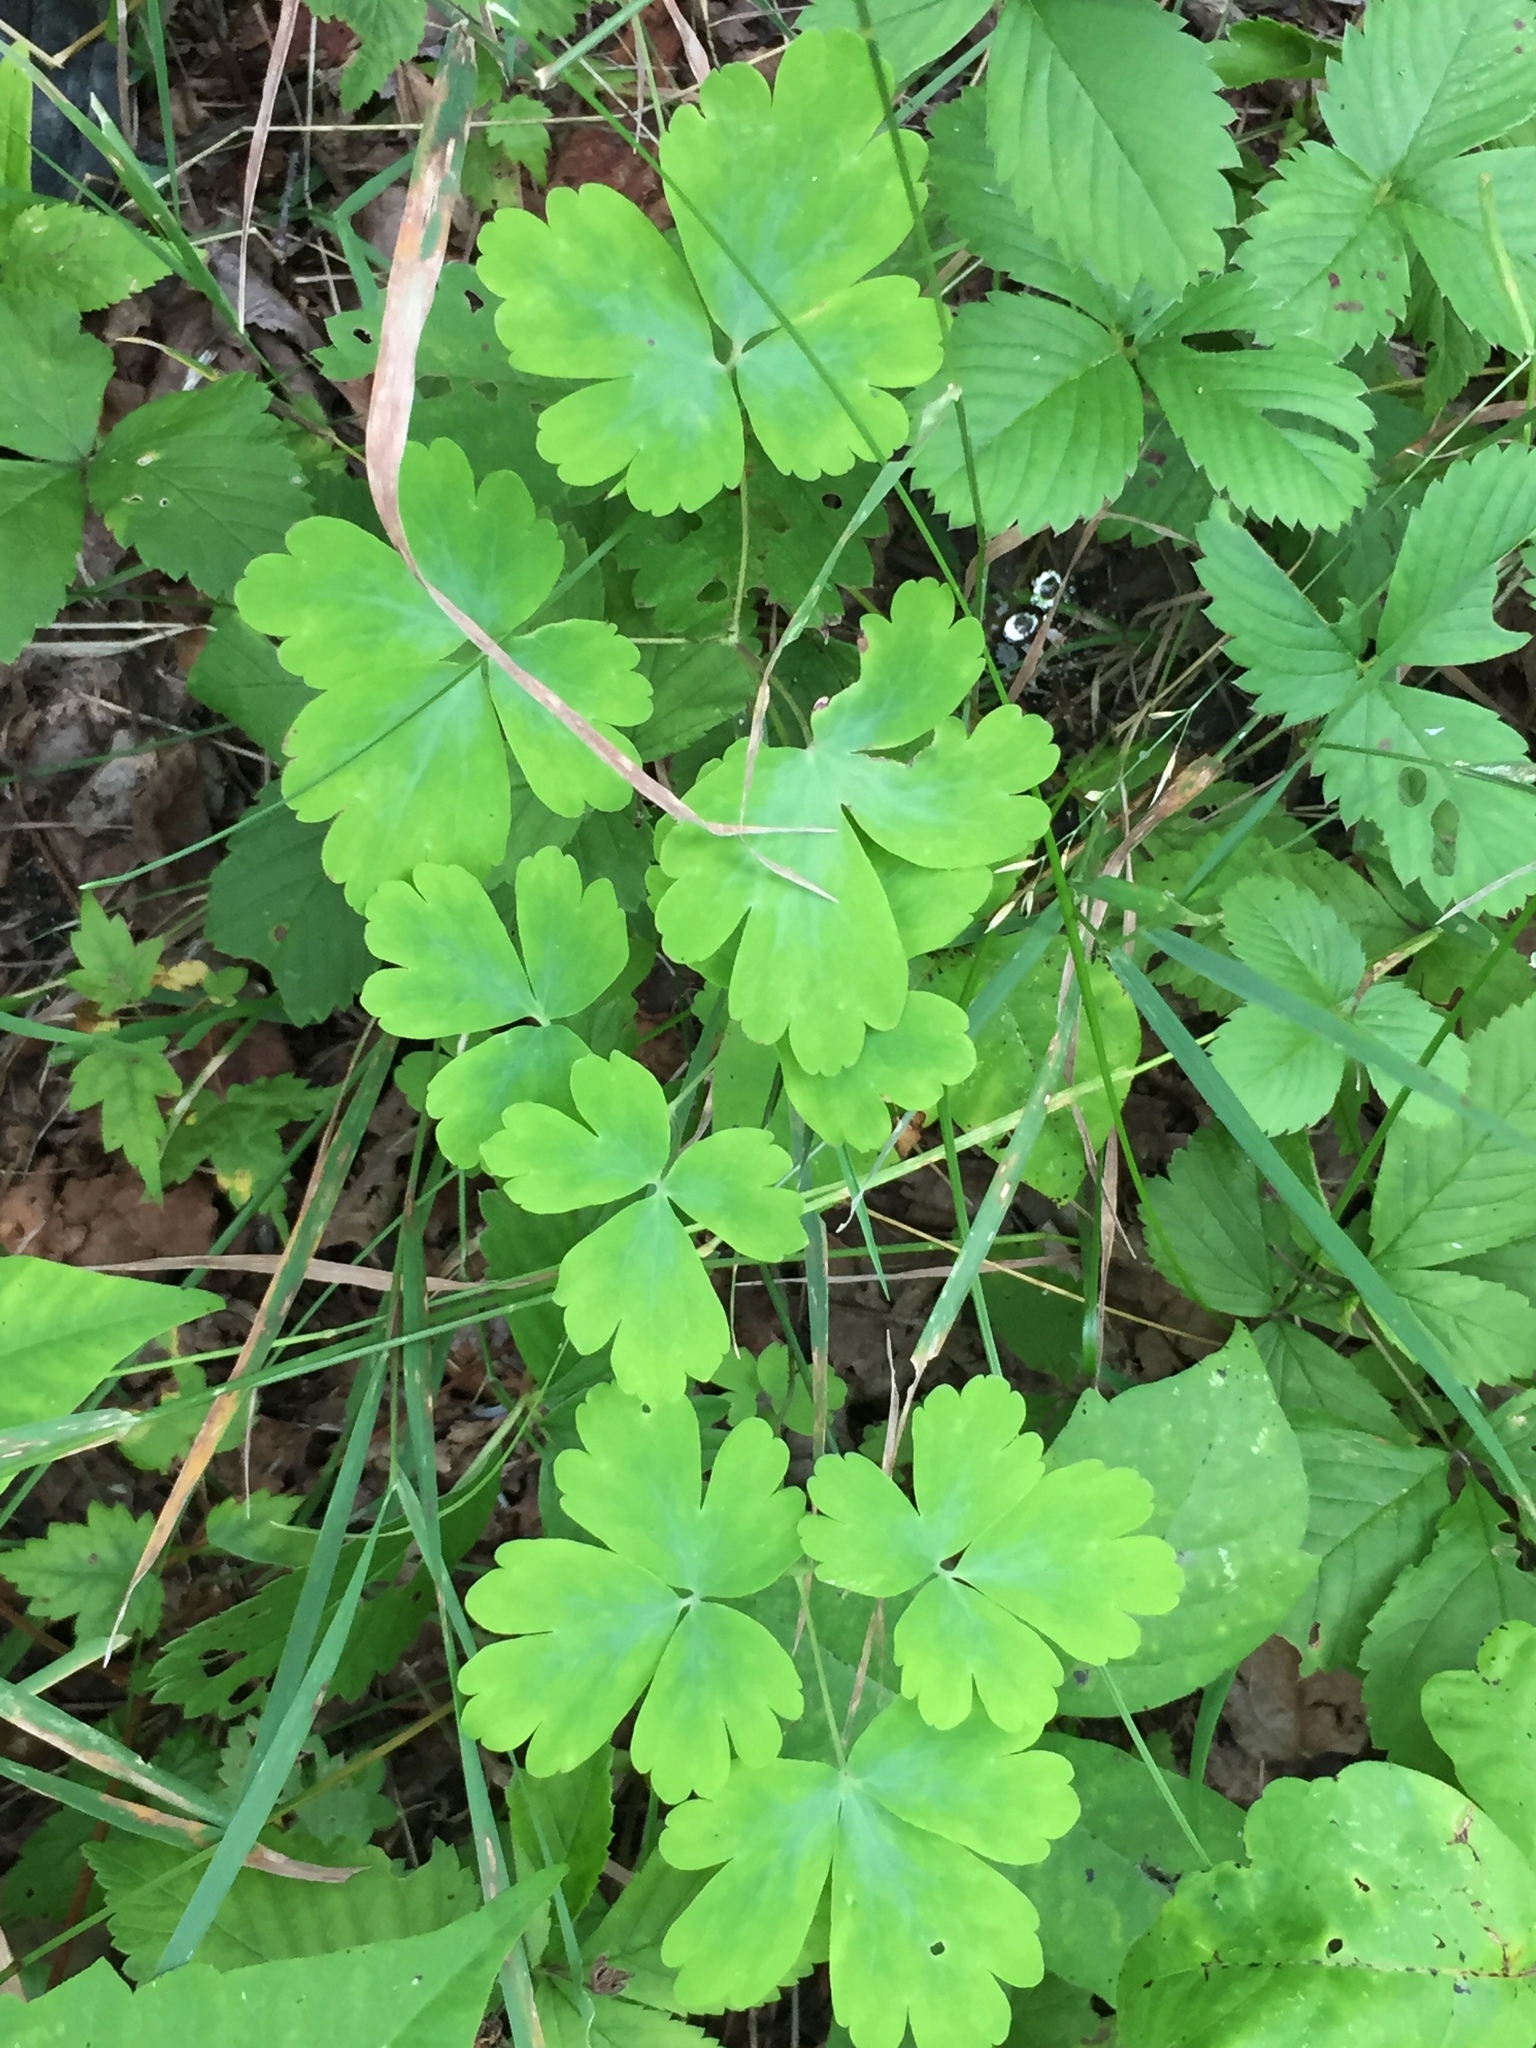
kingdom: Plantae
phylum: Tracheophyta
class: Magnoliopsida
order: Ranunculales
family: Ranunculaceae
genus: Aquilegia
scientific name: Aquilegia canadensis
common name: American columbine
